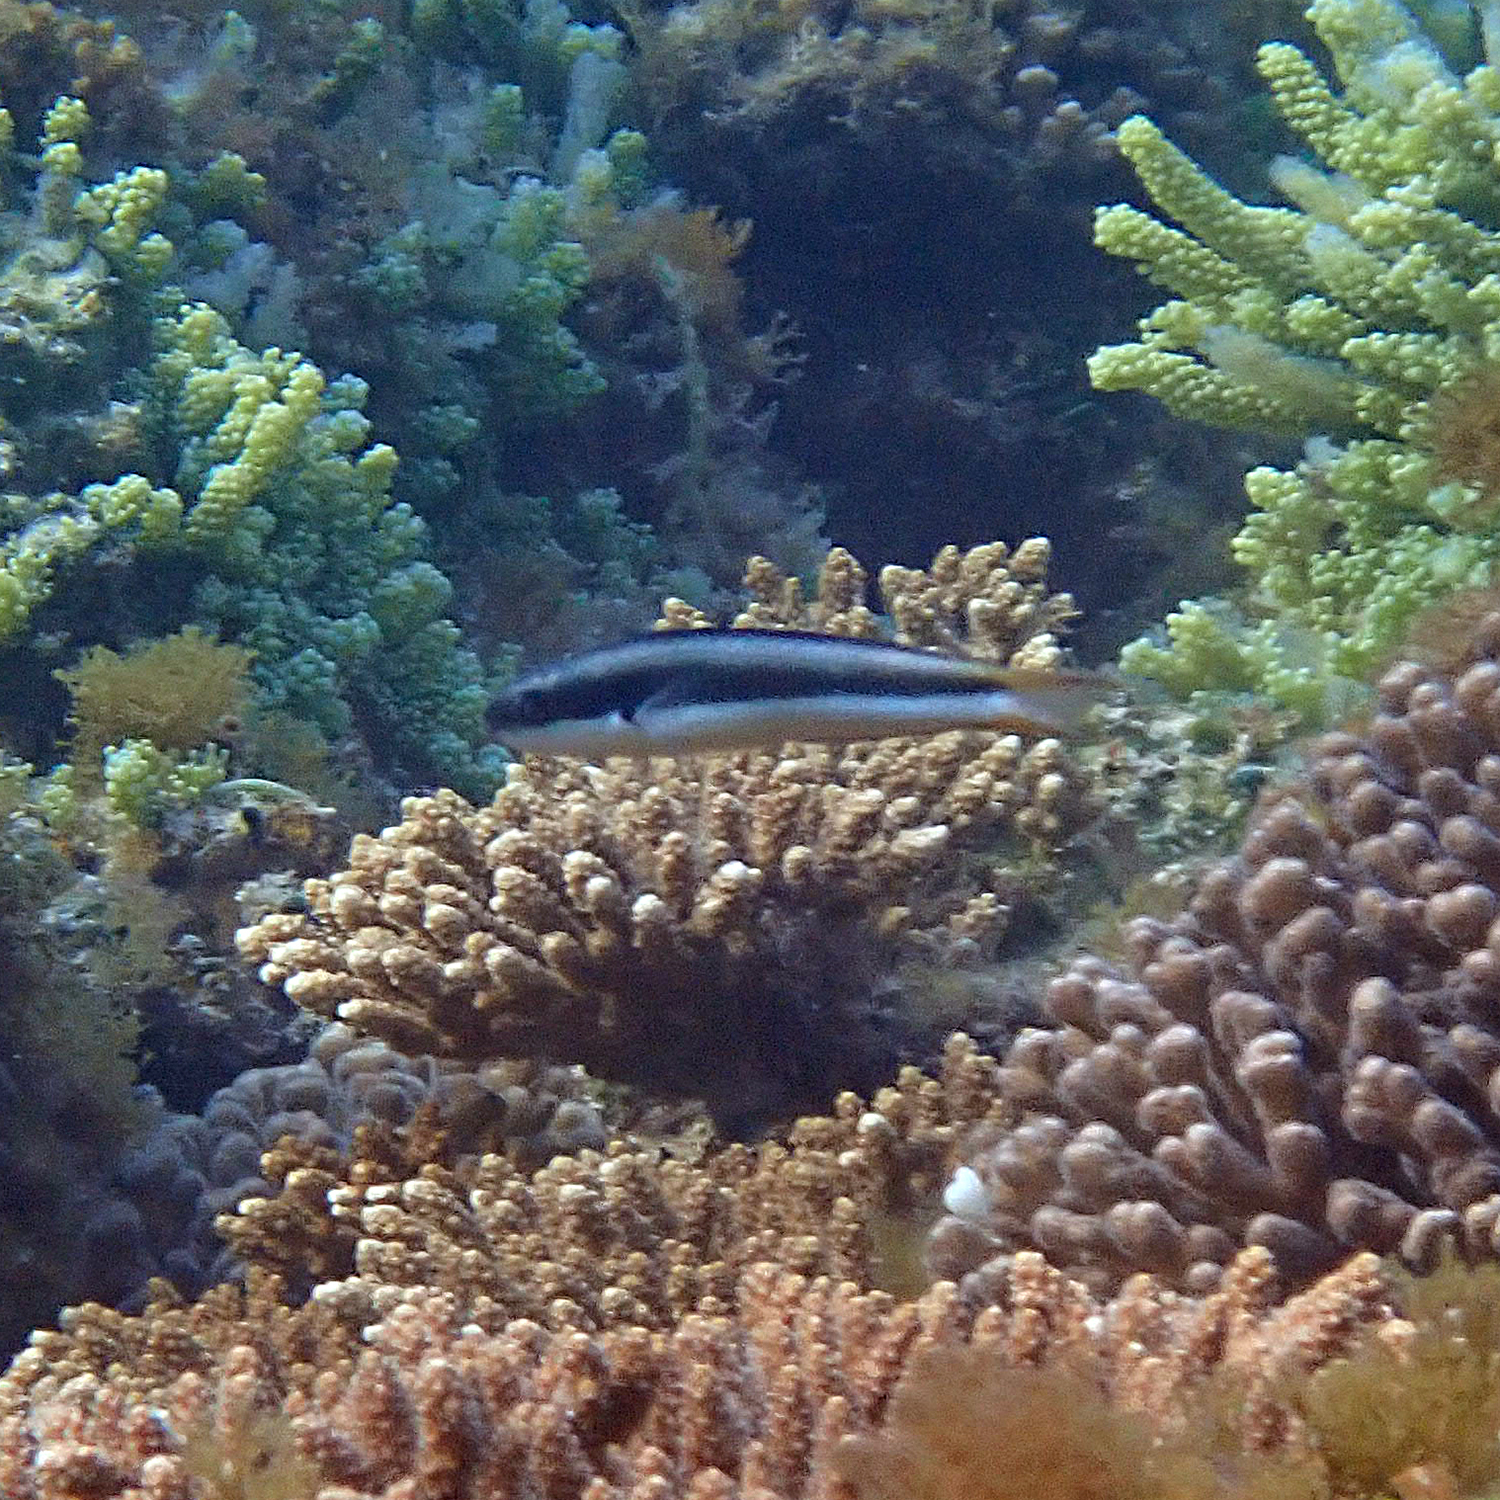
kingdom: Animalia
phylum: Chordata
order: Perciformes
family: Labridae
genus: Thalassoma
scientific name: Thalassoma amblycephalum
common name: Bluehead wrasse
